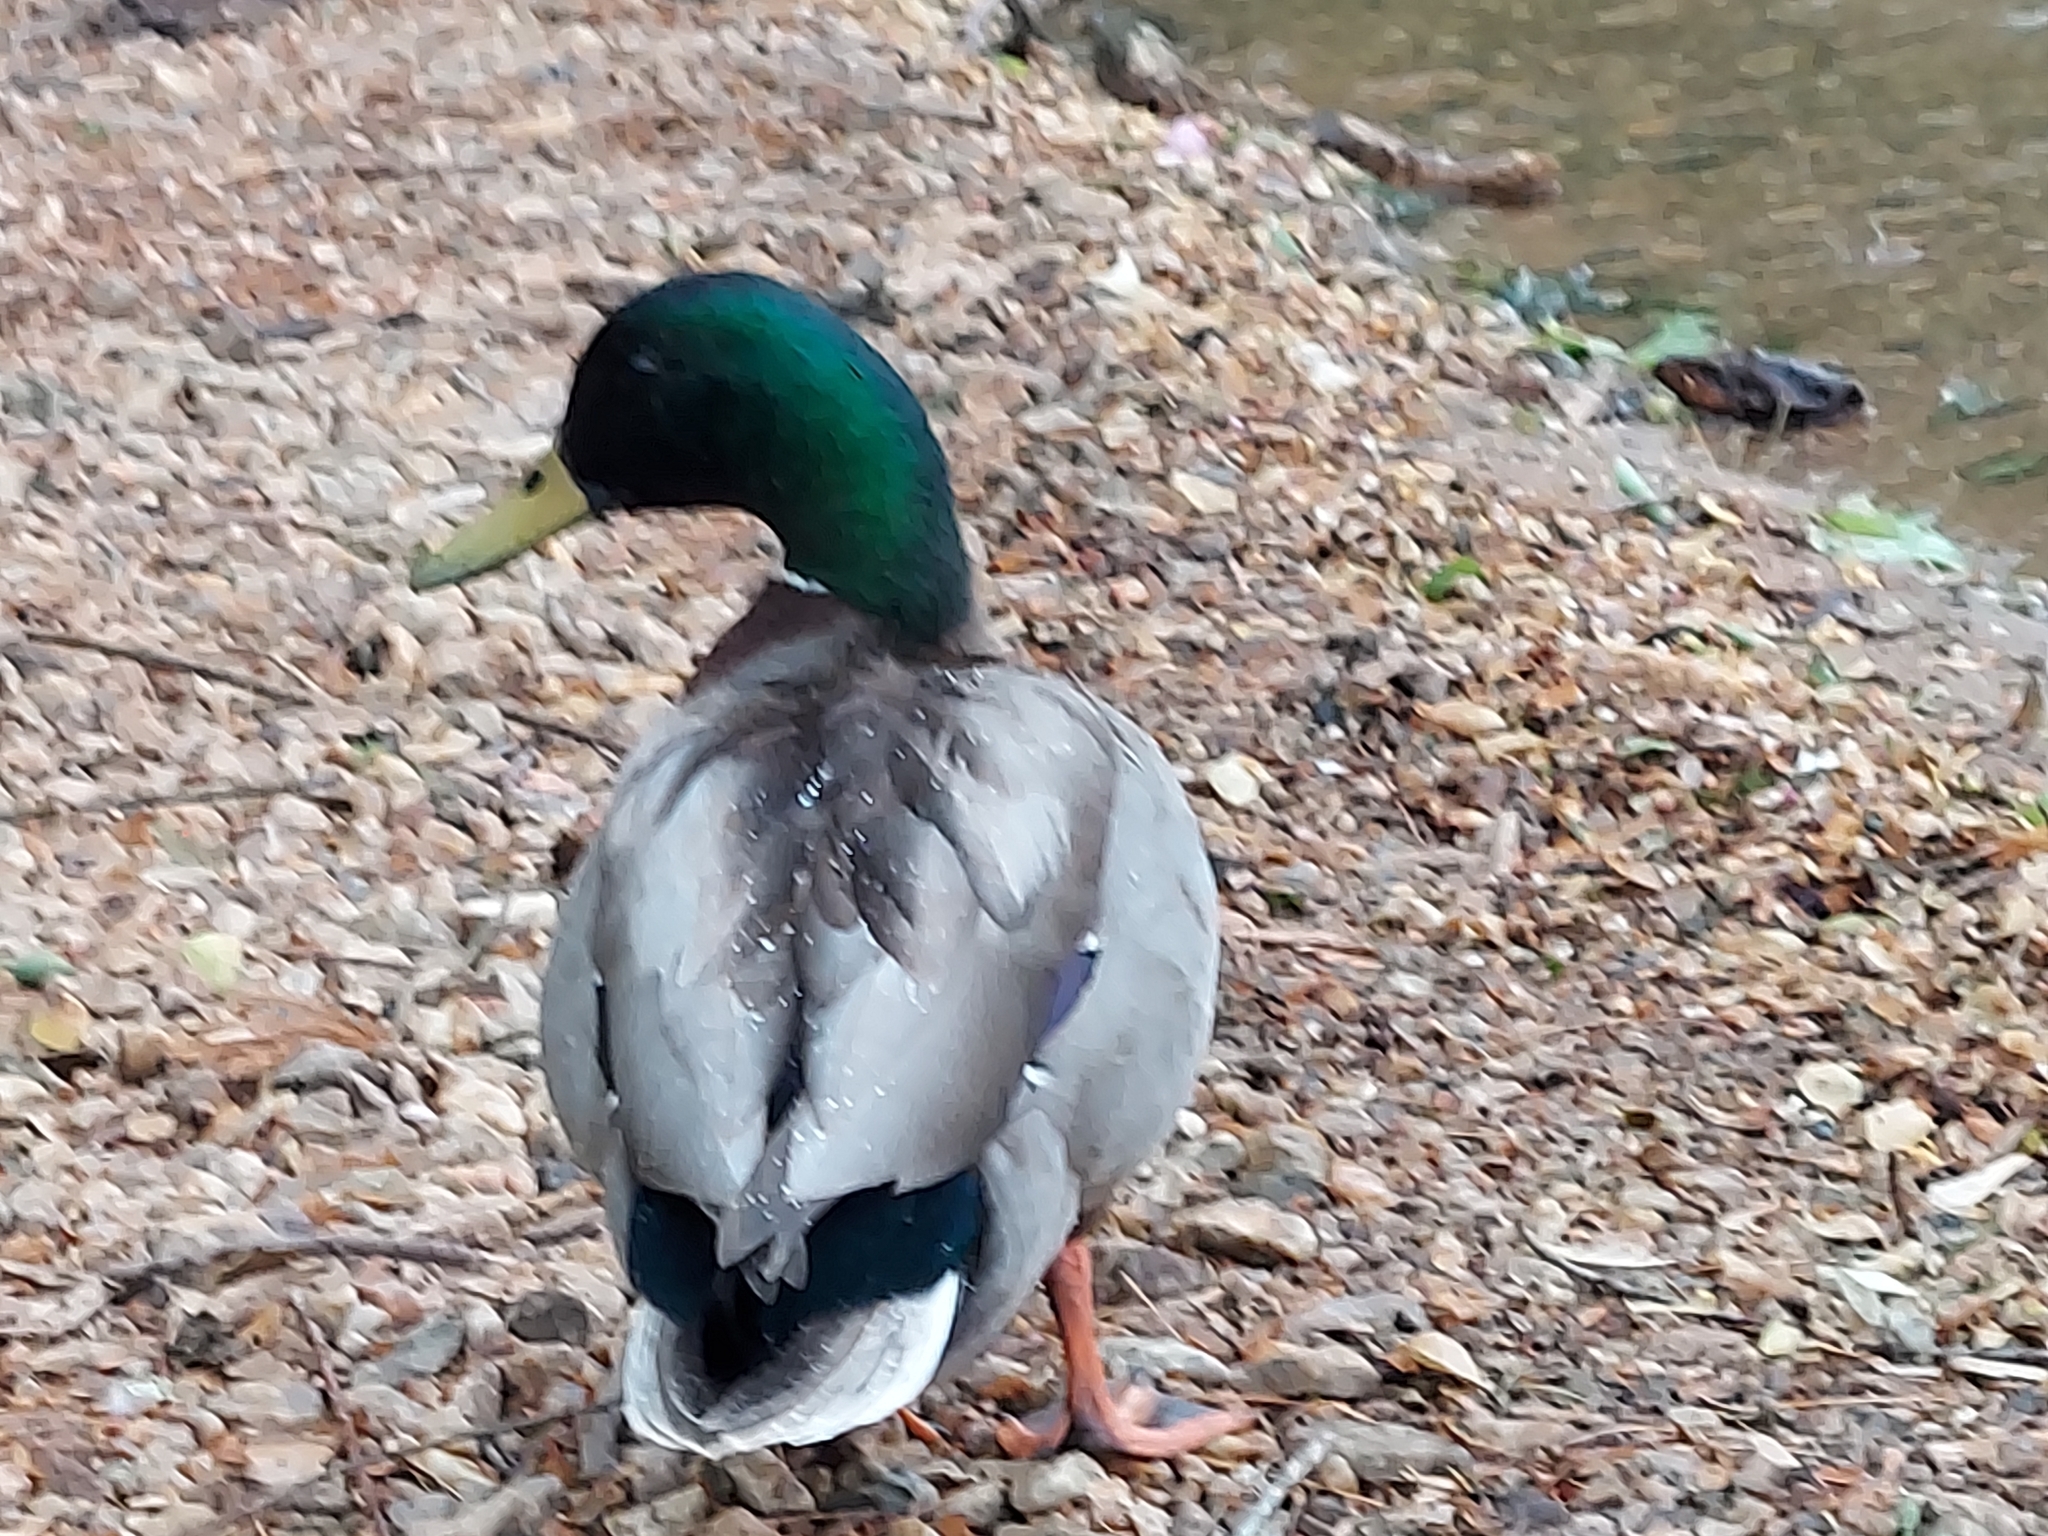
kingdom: Animalia
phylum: Chordata
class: Aves
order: Anseriformes
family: Anatidae
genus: Anas
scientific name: Anas platyrhynchos
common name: Mallard
